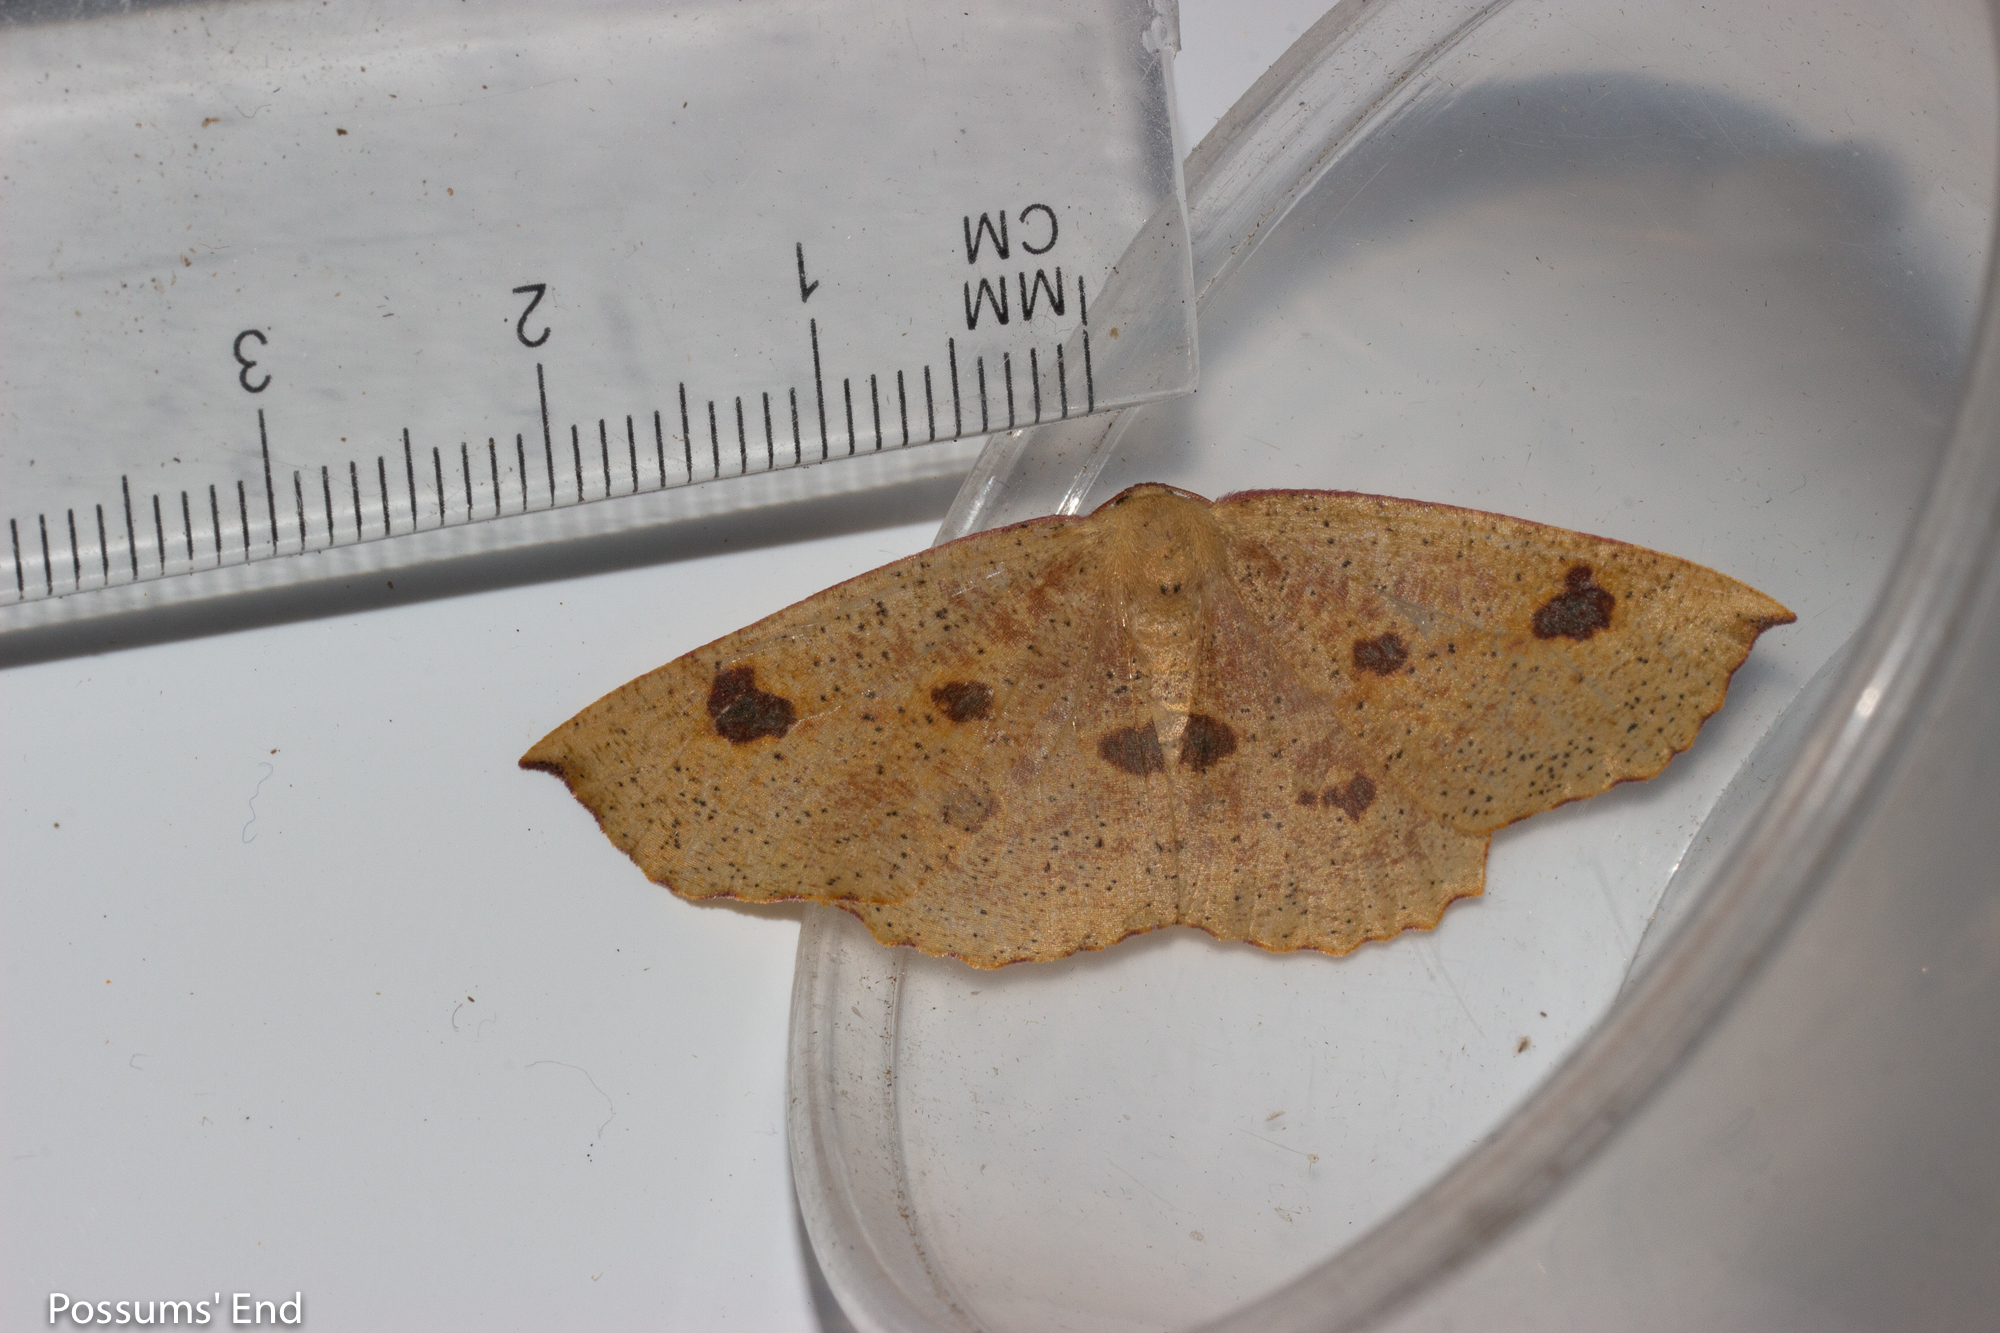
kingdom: Animalia
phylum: Arthropoda
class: Insecta
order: Lepidoptera
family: Geometridae
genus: Xyridacma
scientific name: Xyridacma alectoraria
